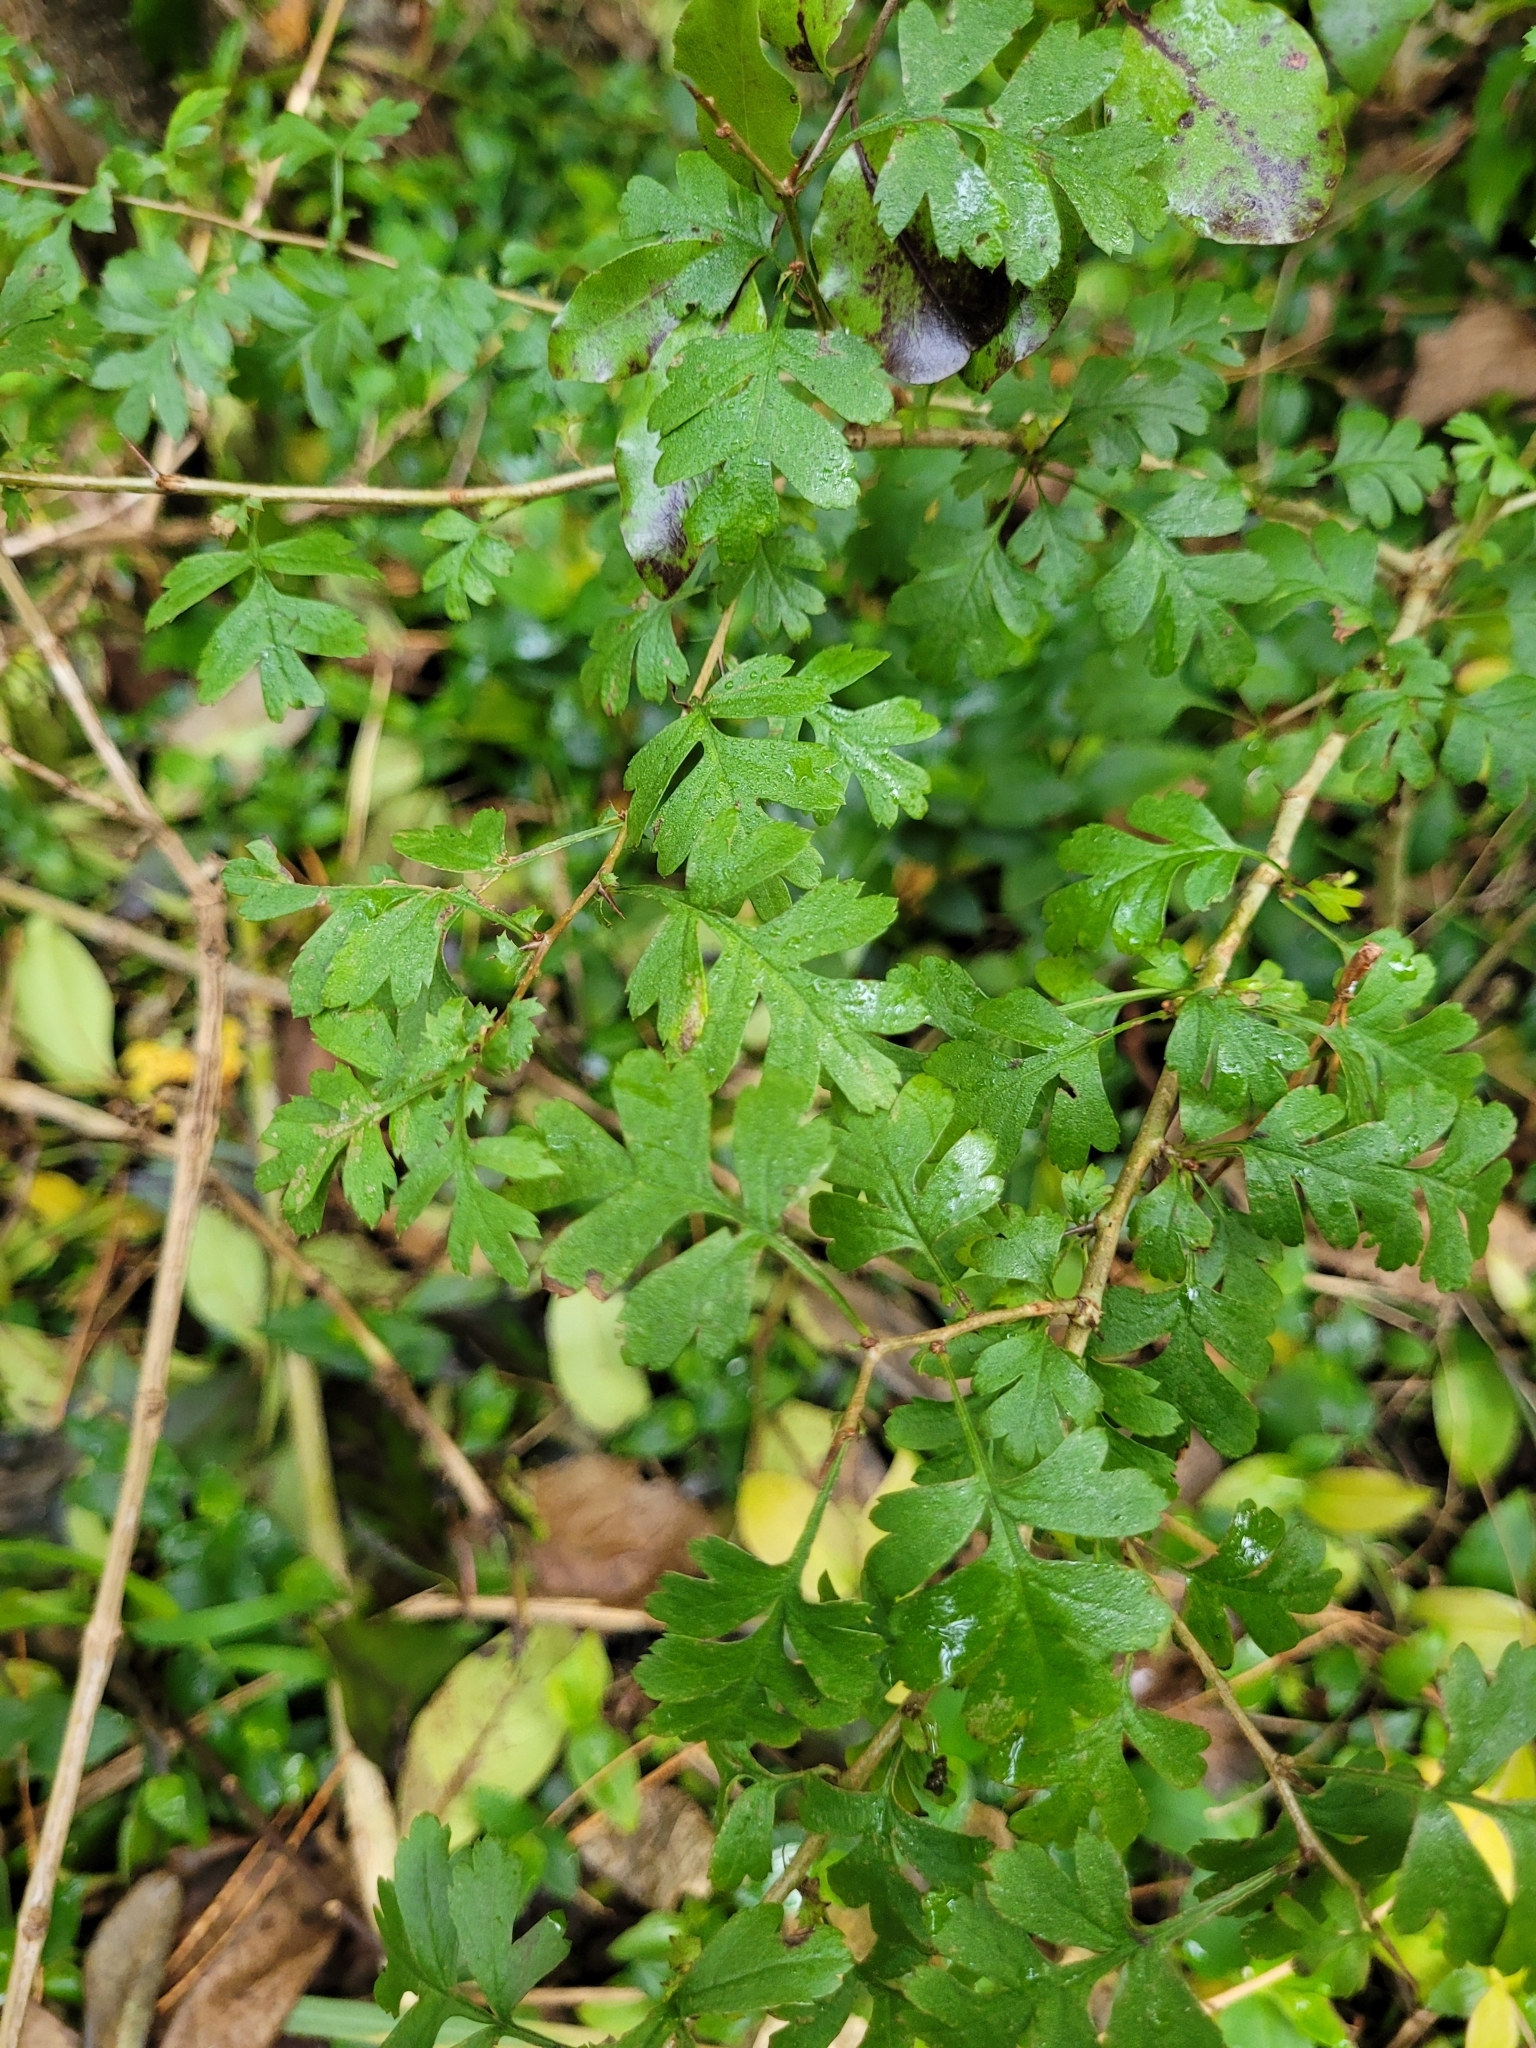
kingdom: Plantae
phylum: Tracheophyta
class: Magnoliopsida
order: Rosales
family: Rosaceae
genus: Crataegus
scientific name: Crataegus monogyna
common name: Hawthorn
